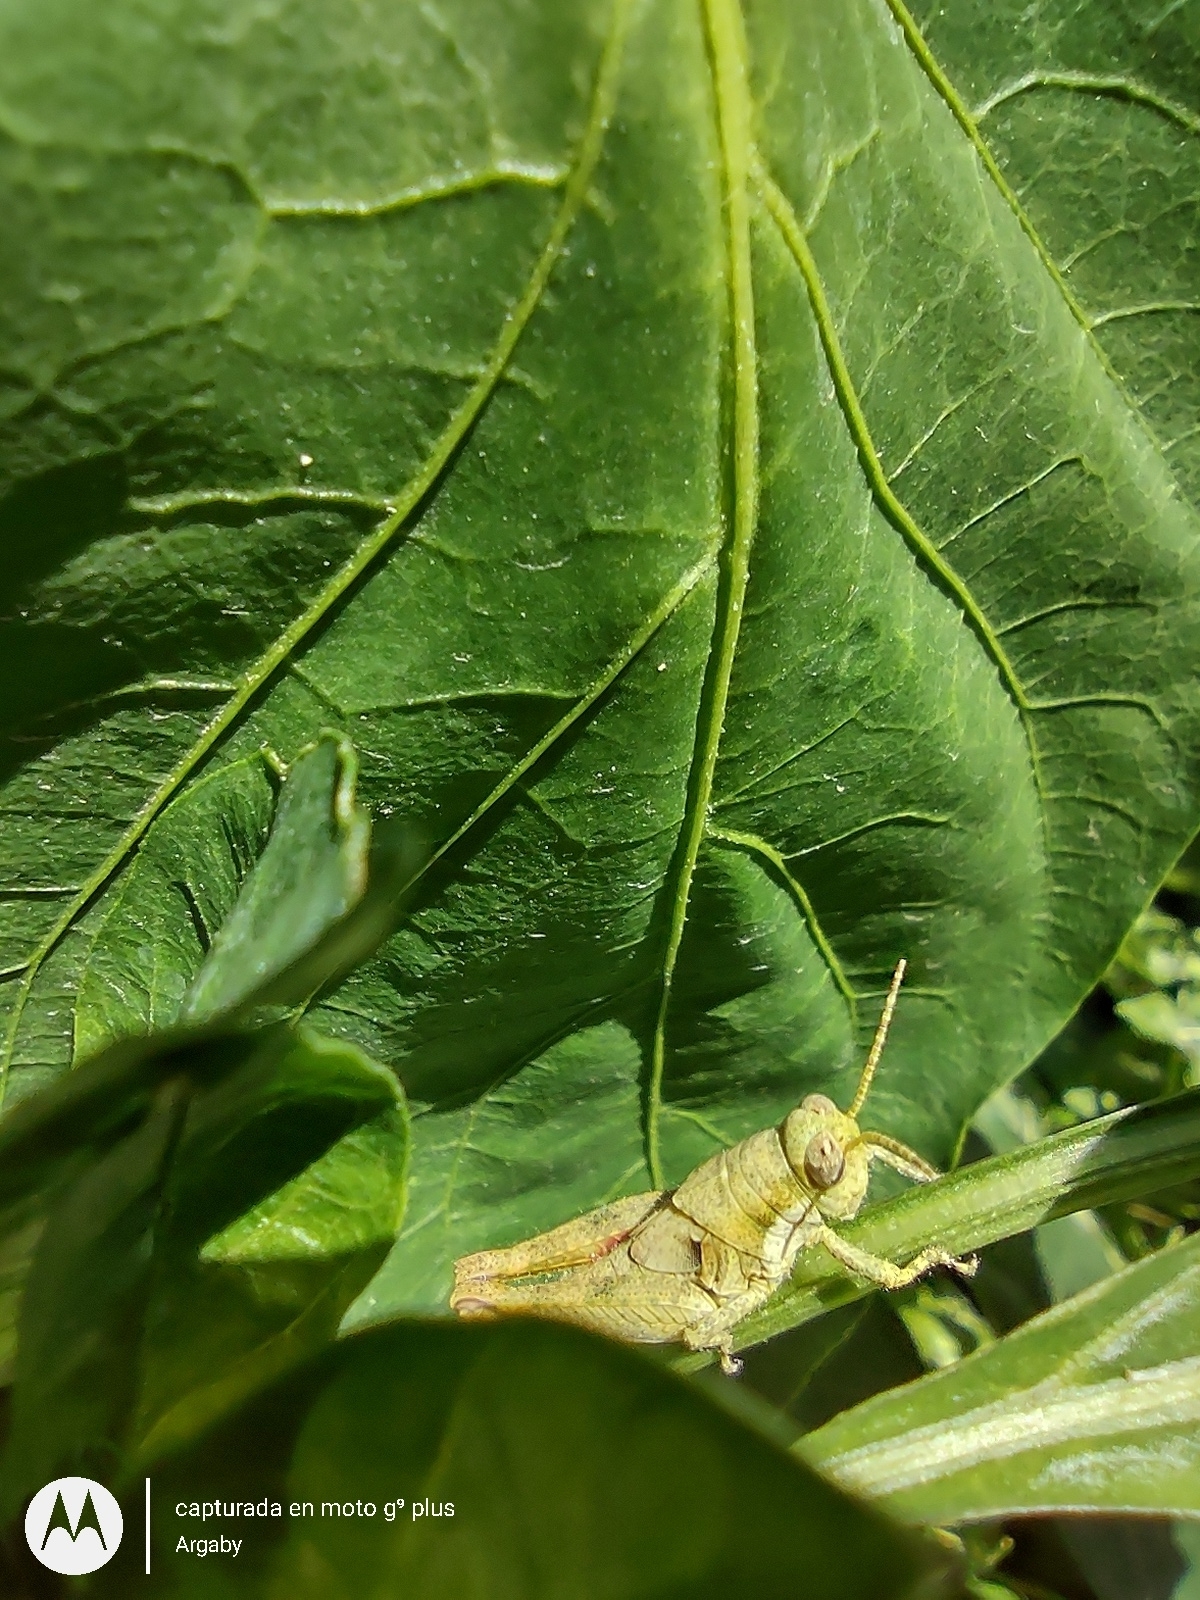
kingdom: Animalia
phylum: Arthropoda
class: Insecta
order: Orthoptera
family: Acrididae
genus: Ronderosia
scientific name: Ronderosia bergii
